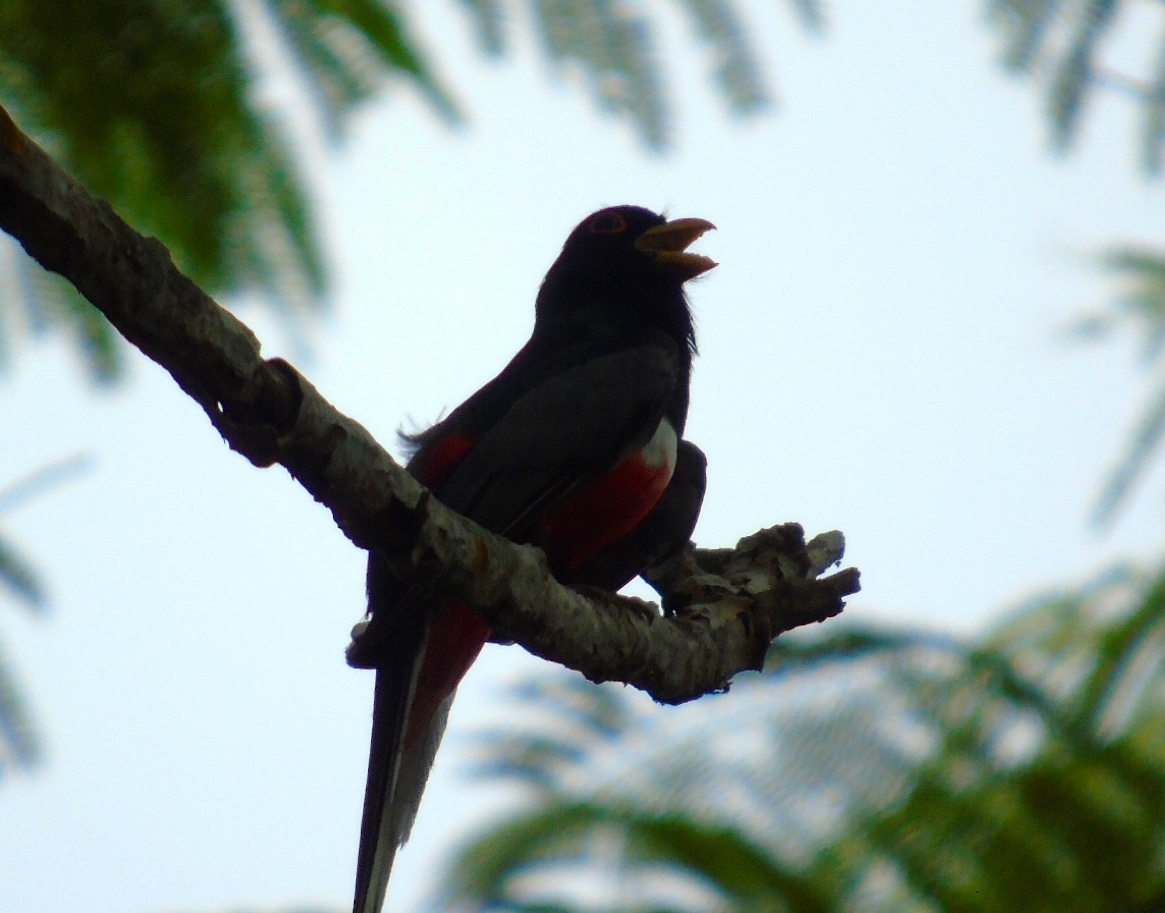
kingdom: Animalia
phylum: Chordata
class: Aves
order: Trogoniformes
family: Trogonidae
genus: Trogon
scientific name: Trogon elegans
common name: Elegant trogon
